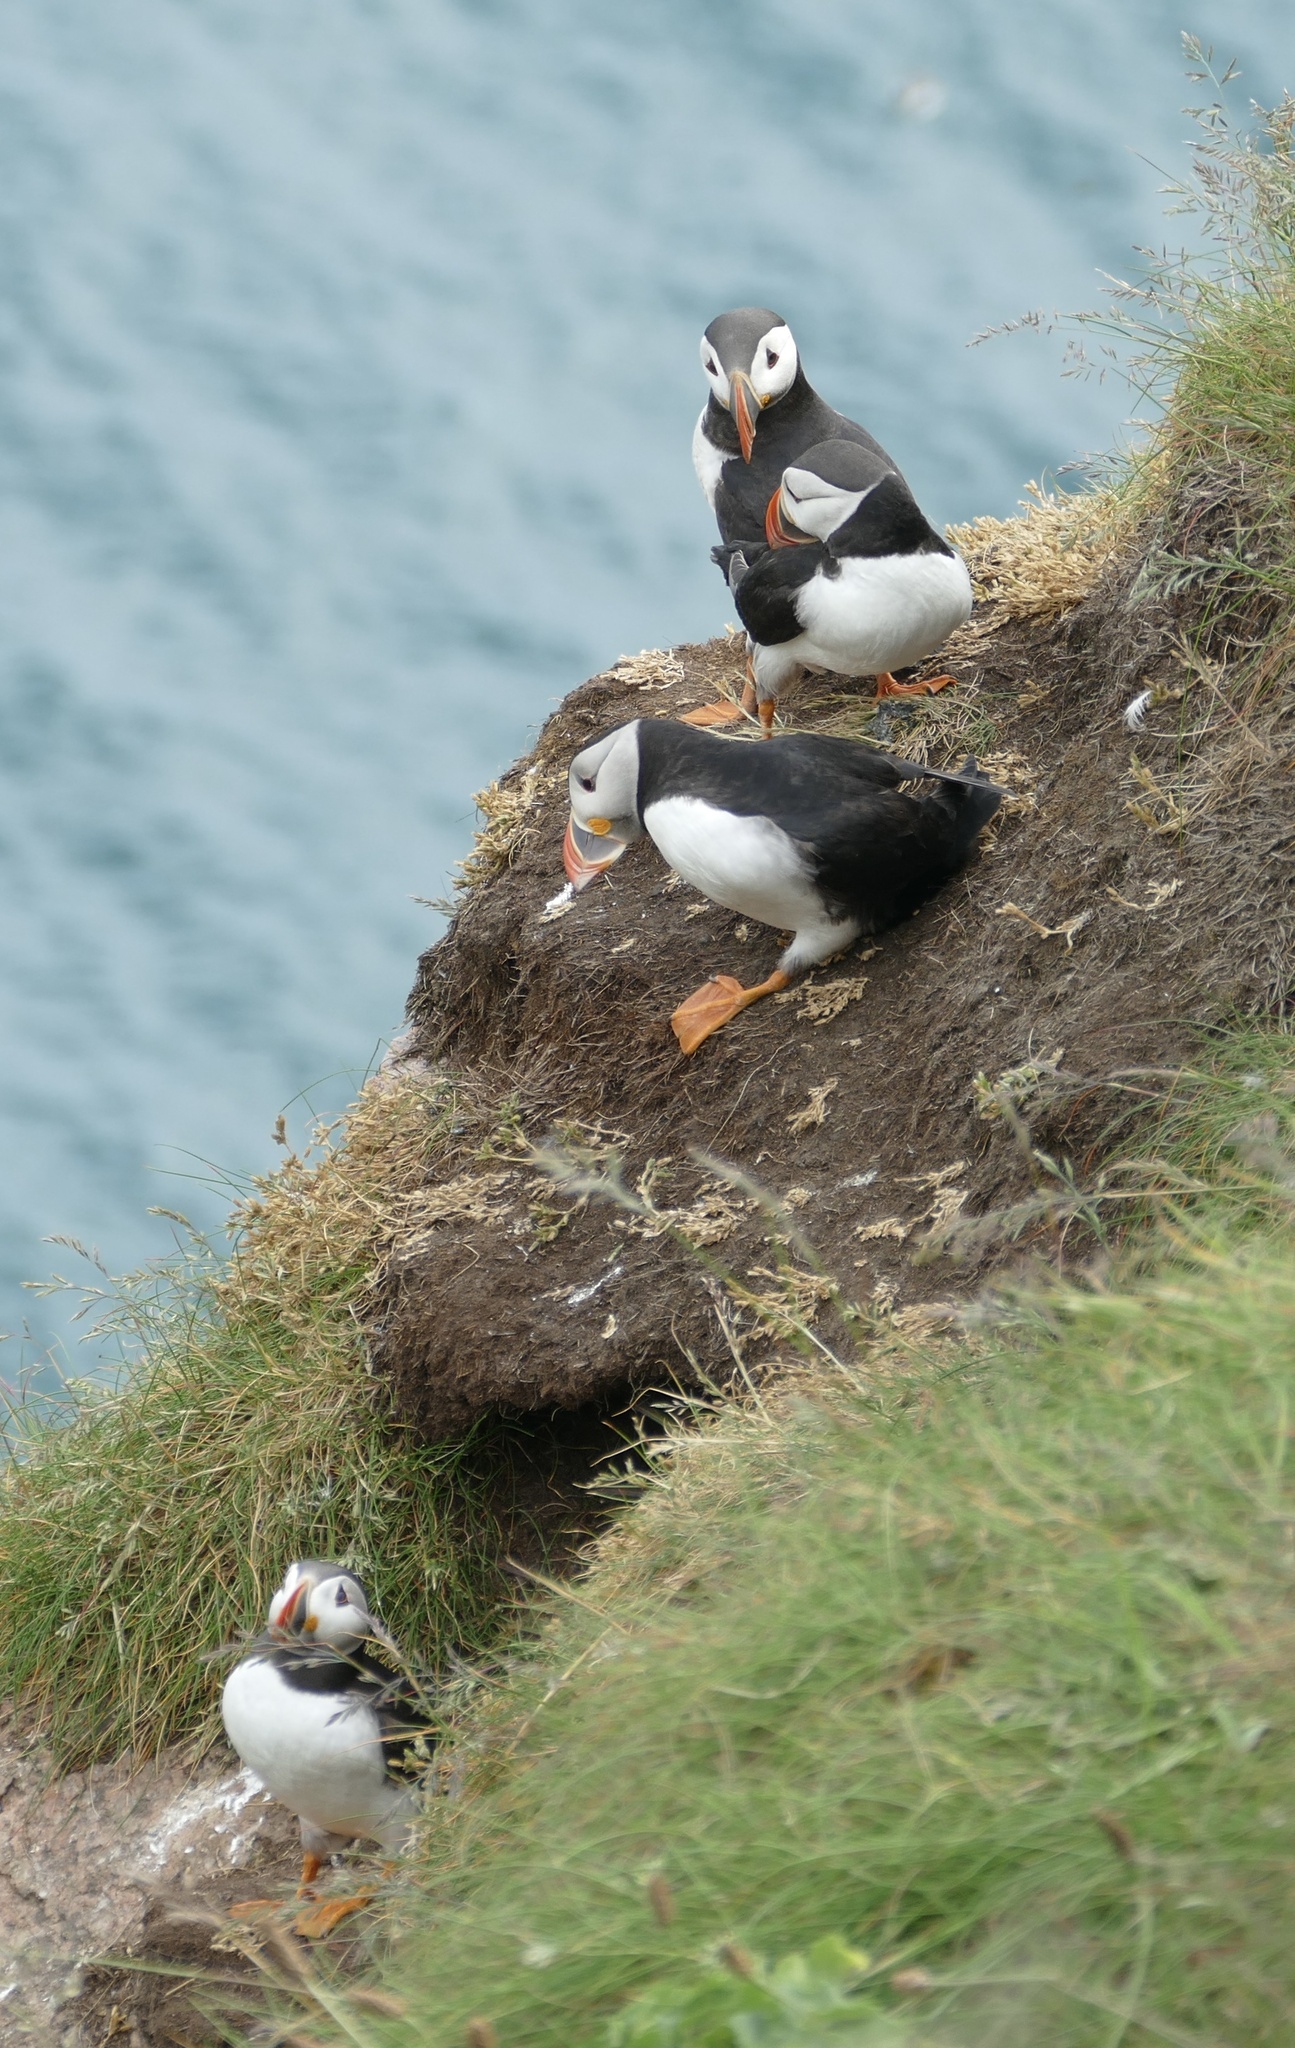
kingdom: Animalia
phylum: Chordata
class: Aves
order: Charadriiformes
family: Alcidae
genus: Fratercula
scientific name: Fratercula arctica
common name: Atlantic puffin
